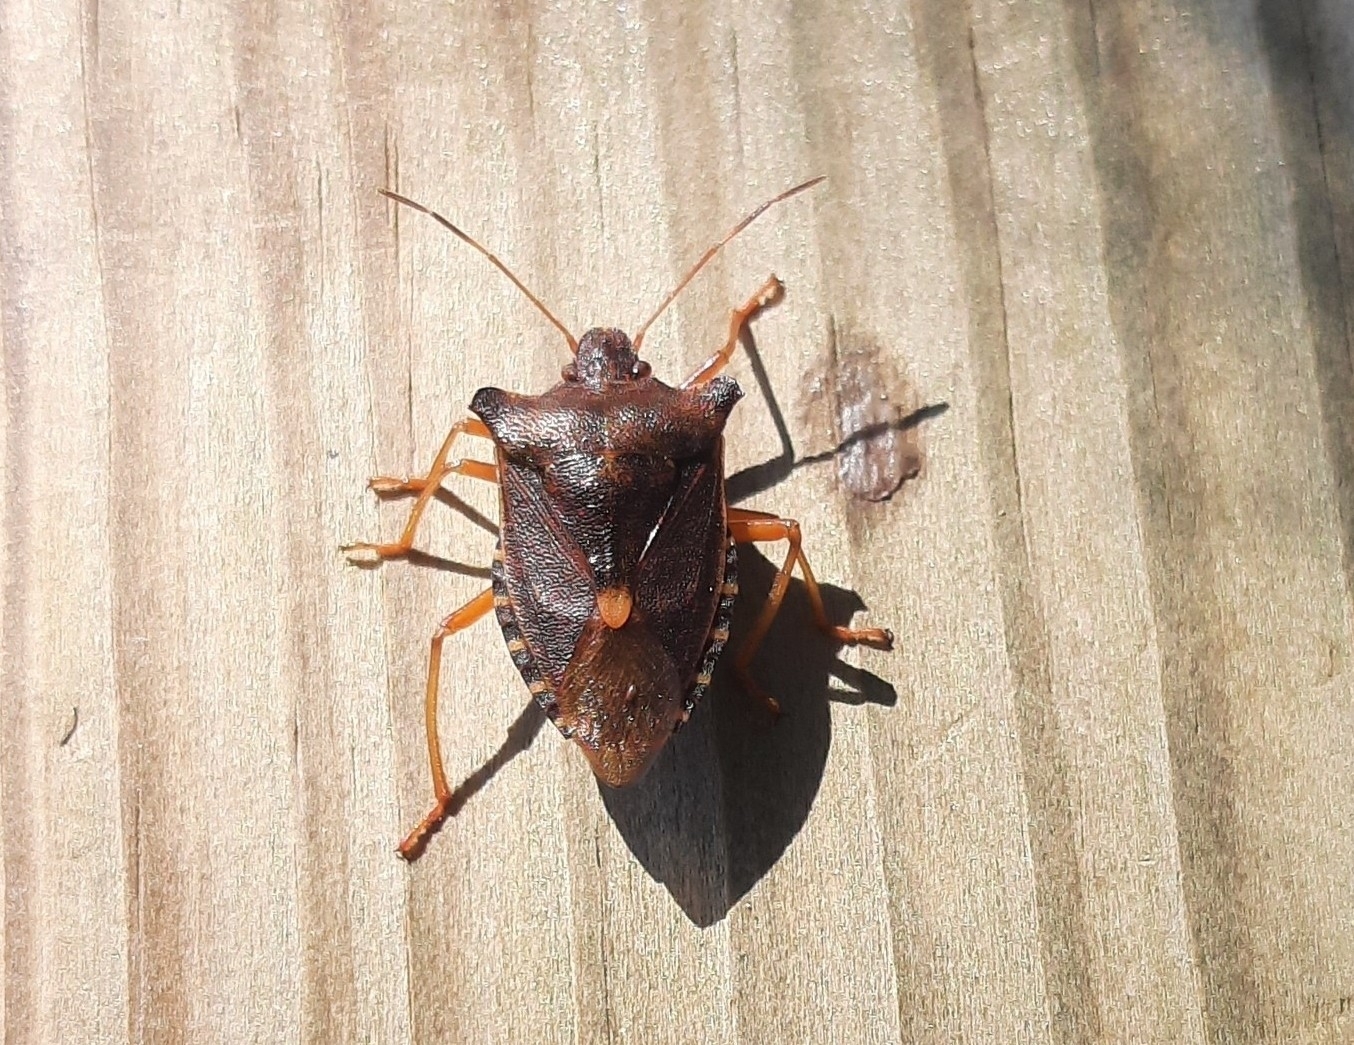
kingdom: Animalia
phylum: Arthropoda
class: Insecta
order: Hemiptera
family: Pentatomidae
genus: Pentatoma
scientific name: Pentatoma rufipes
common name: Forest bug
